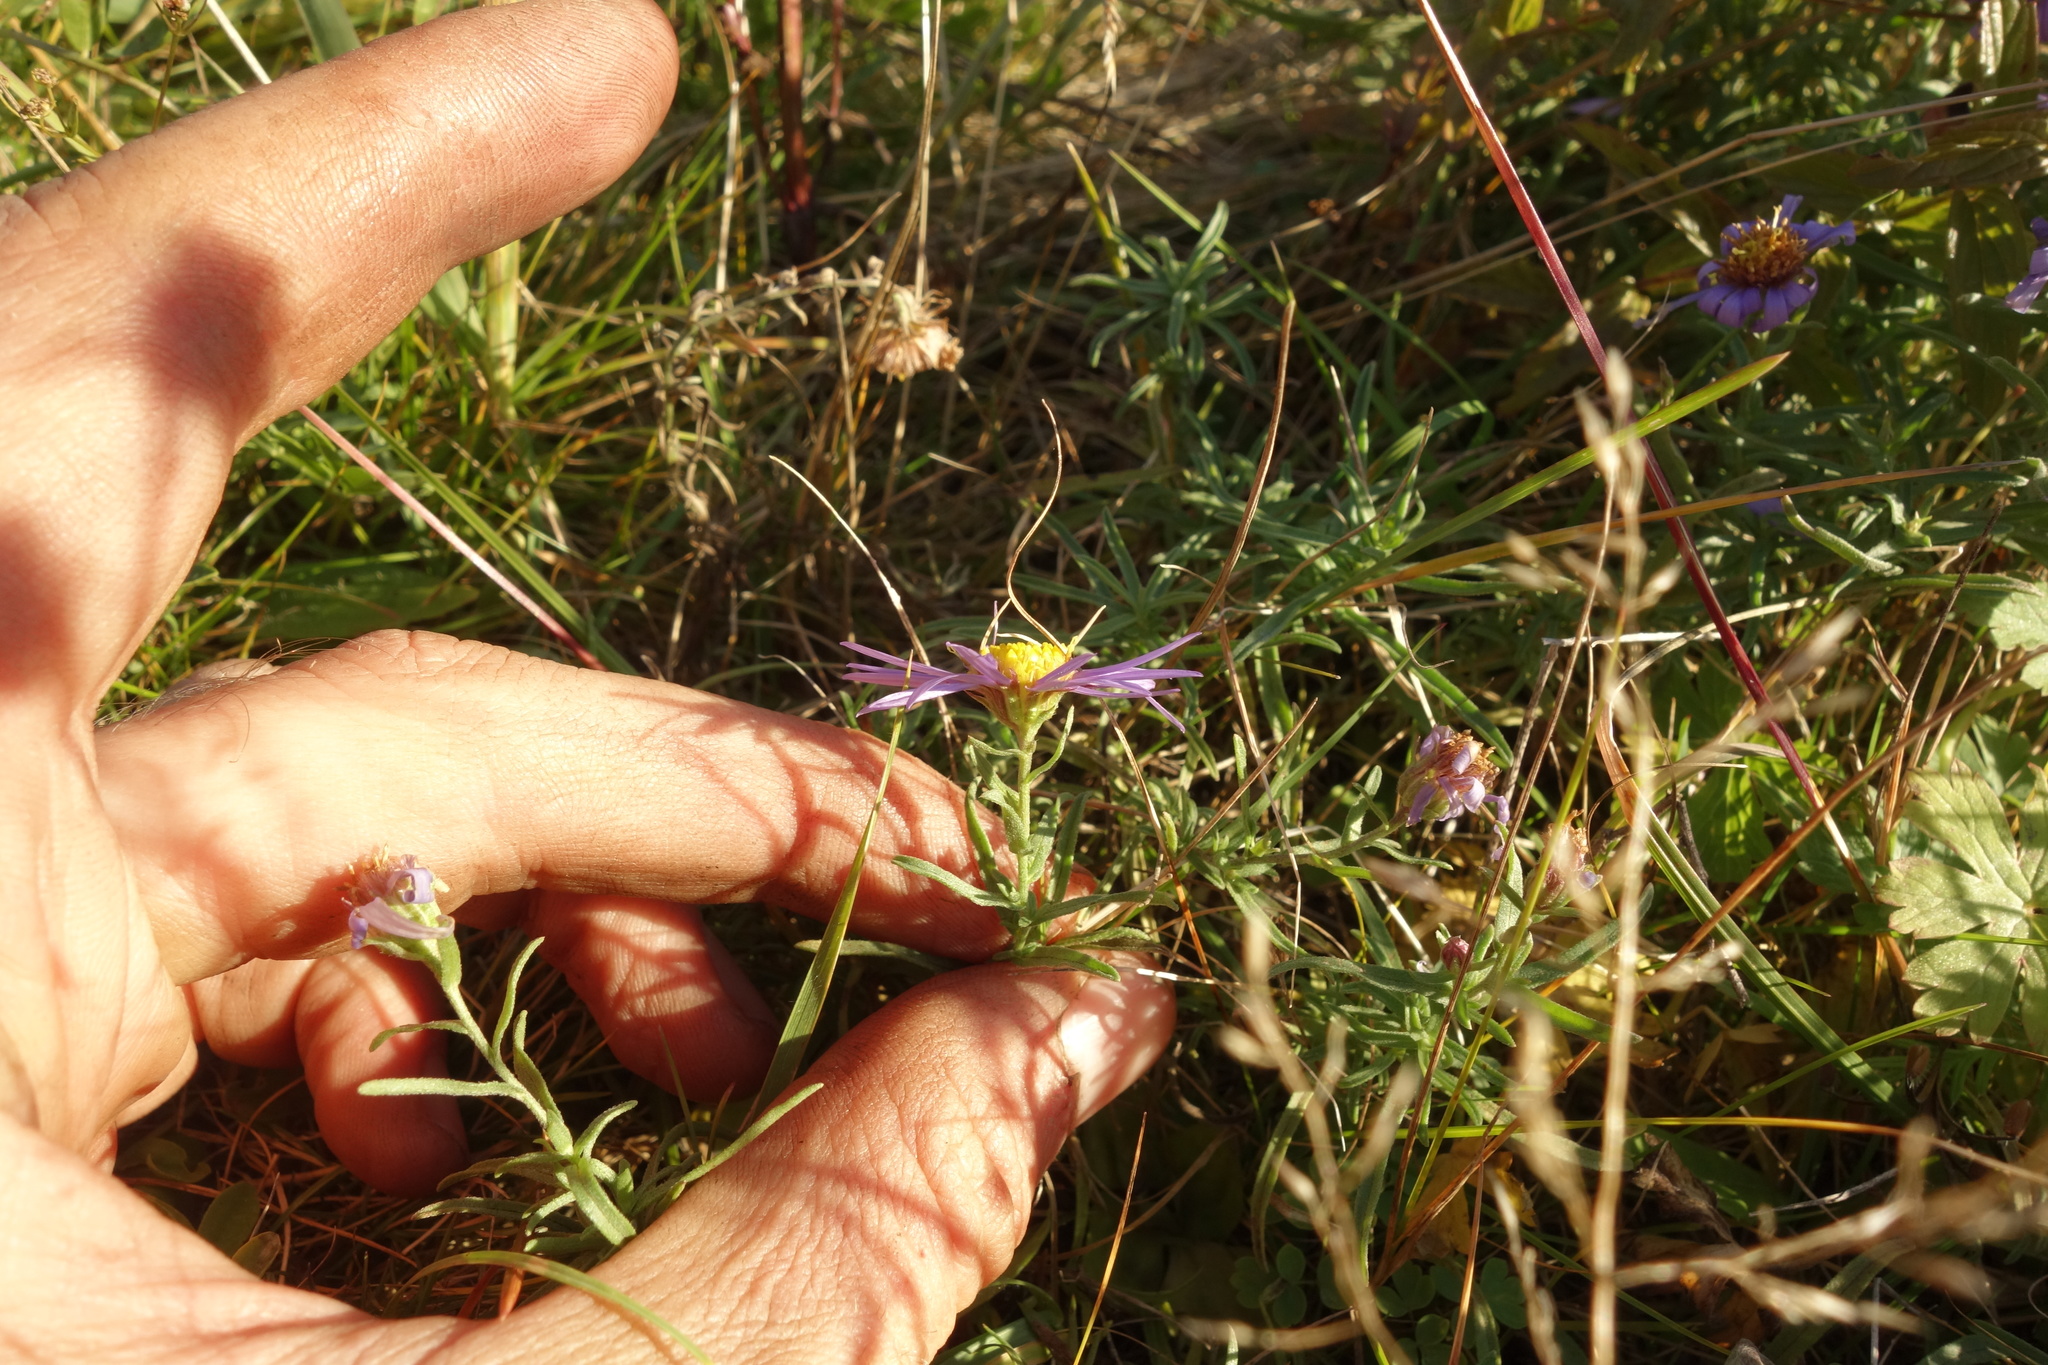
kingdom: Plantae
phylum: Tracheophyta
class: Magnoliopsida
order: Asterales
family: Asteraceae
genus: Heteropappus
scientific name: Heteropappus altaicus
